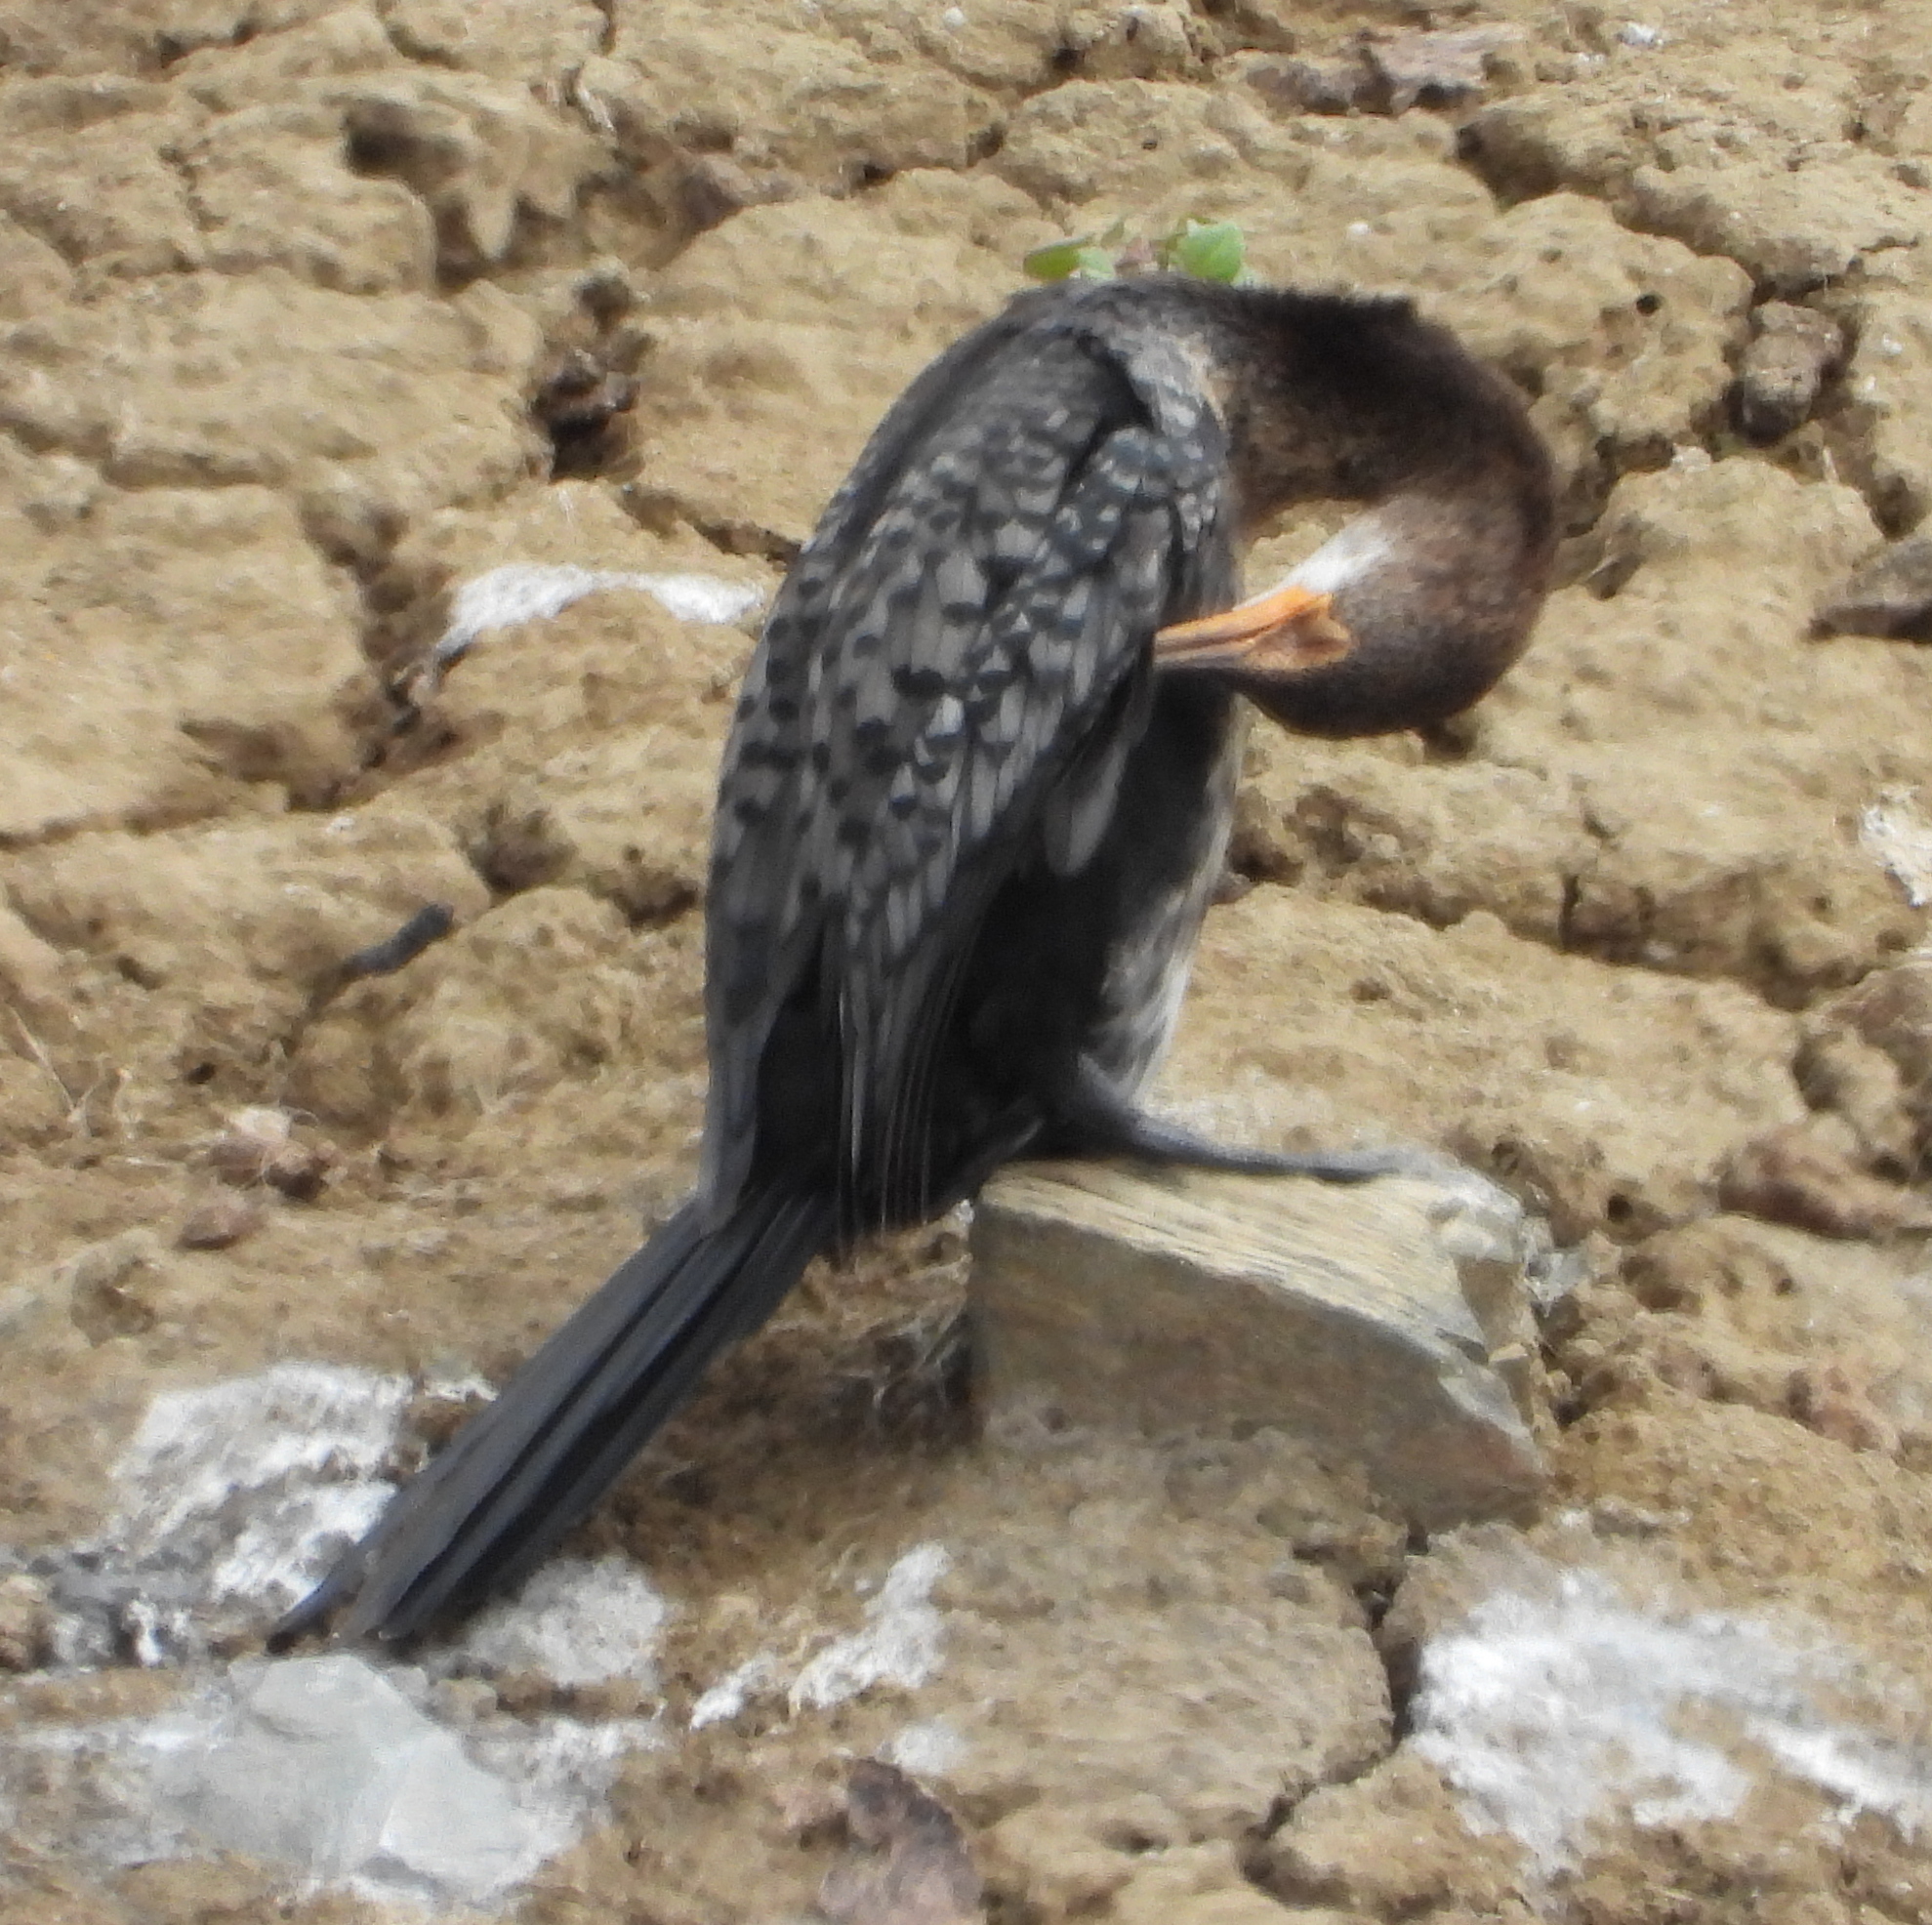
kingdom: Animalia
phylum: Chordata
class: Aves
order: Suliformes
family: Phalacrocoracidae
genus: Microcarbo
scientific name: Microcarbo africanus
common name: Long-tailed cormorant
